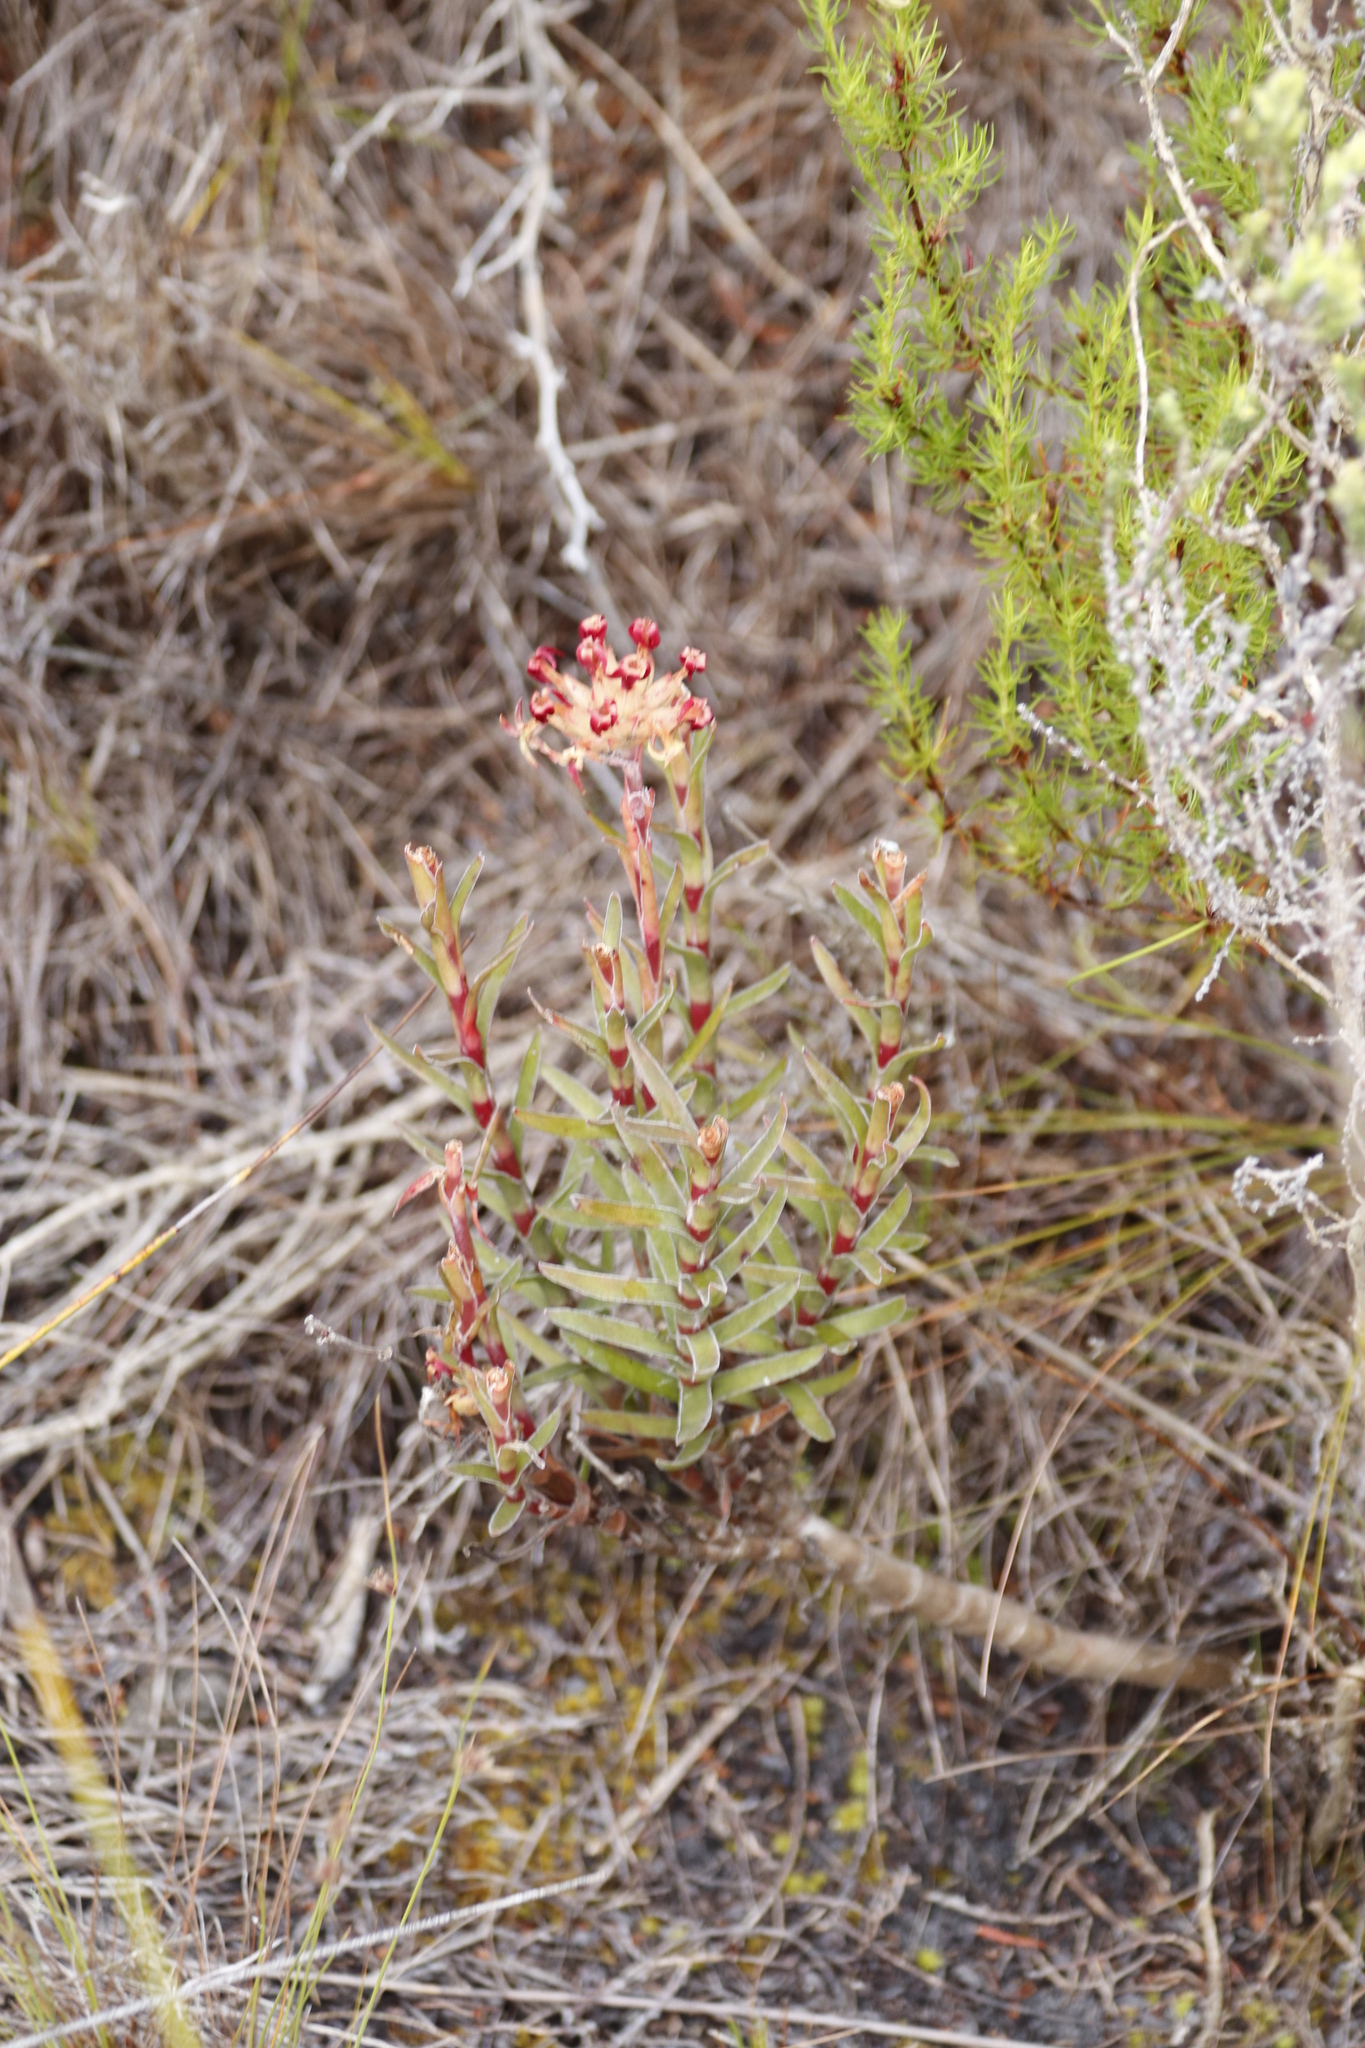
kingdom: Plantae
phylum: Tracheophyta
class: Magnoliopsida
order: Saxifragales
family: Crassulaceae
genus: Crassula
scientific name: Crassula fascicularis
